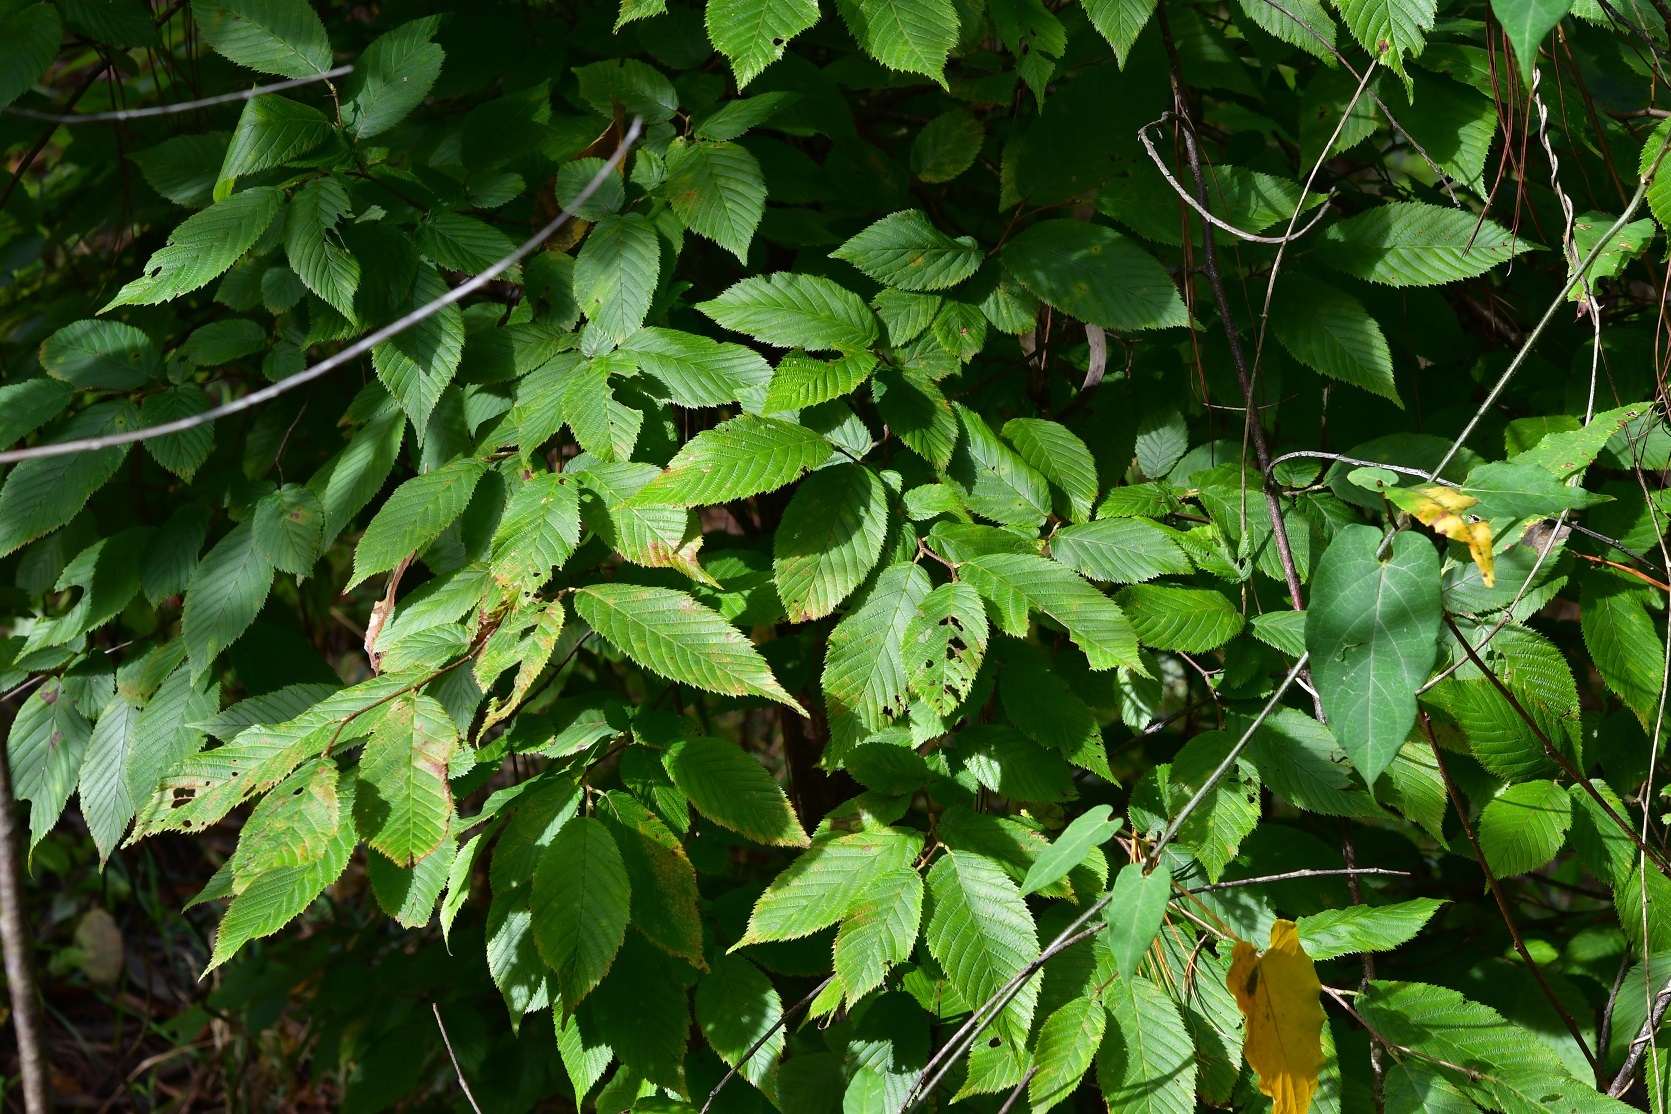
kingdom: Plantae
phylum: Tracheophyta
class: Magnoliopsida
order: Fagales
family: Betulaceae
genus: Ostrya
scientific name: Ostrya virginiana
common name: Ironwood
